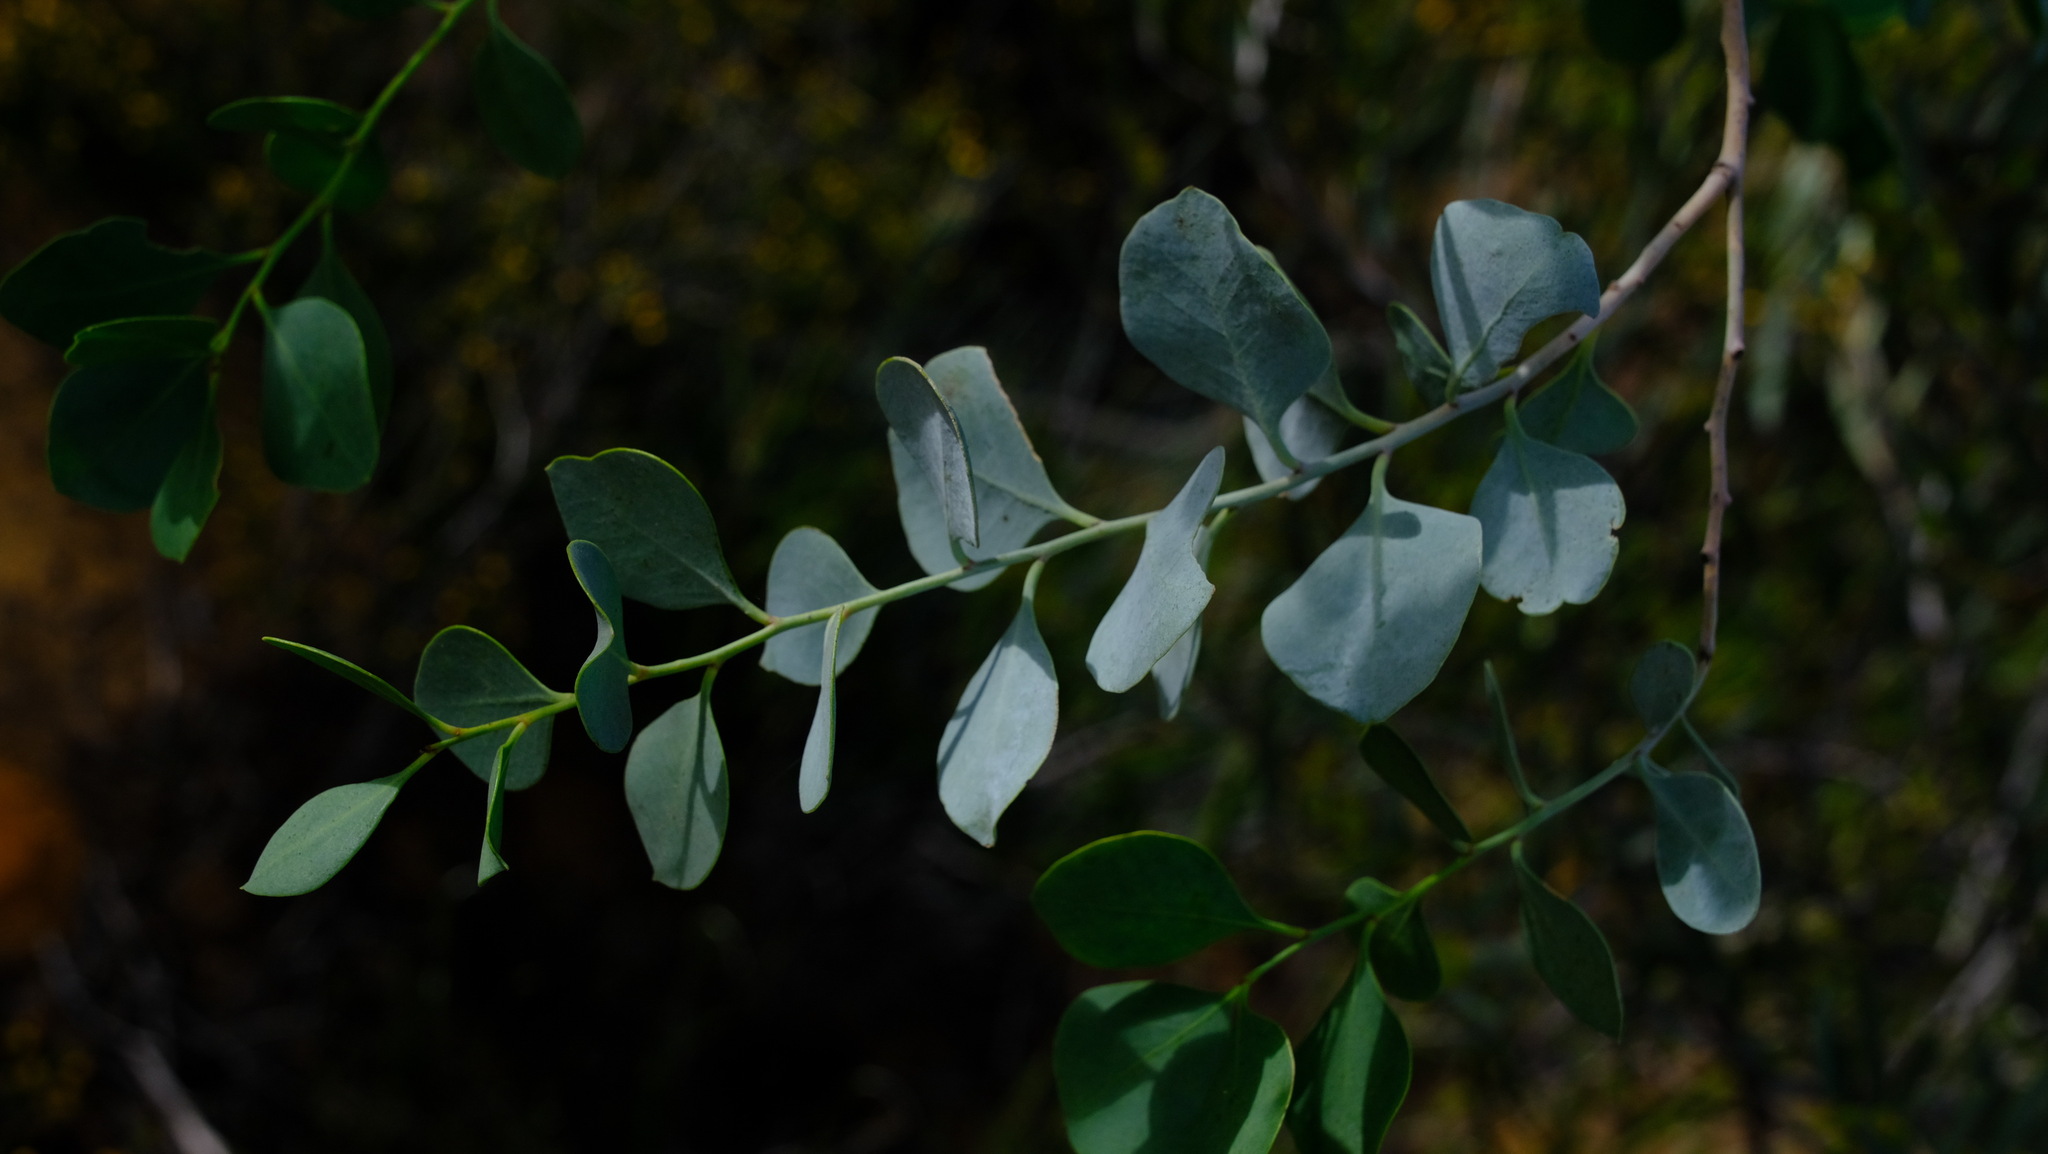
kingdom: Plantae
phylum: Tracheophyta
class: Magnoliopsida
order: Brassicales
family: Gyrostemonaceae
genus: Codonocarpus
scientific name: Codonocarpus cotinifolius
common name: Mustardtree
